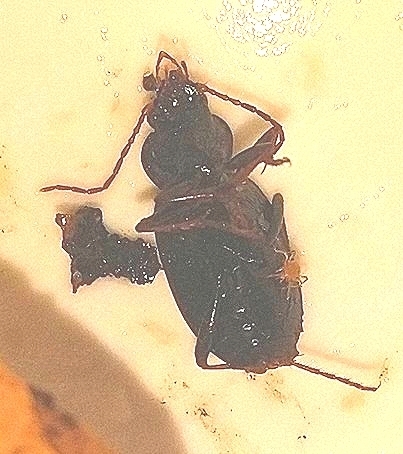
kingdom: Animalia
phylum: Arthropoda
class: Insecta
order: Coleoptera
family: Carabidae
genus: Nebria
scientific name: Nebria brevicollis
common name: Short-necked gazelle beetle
